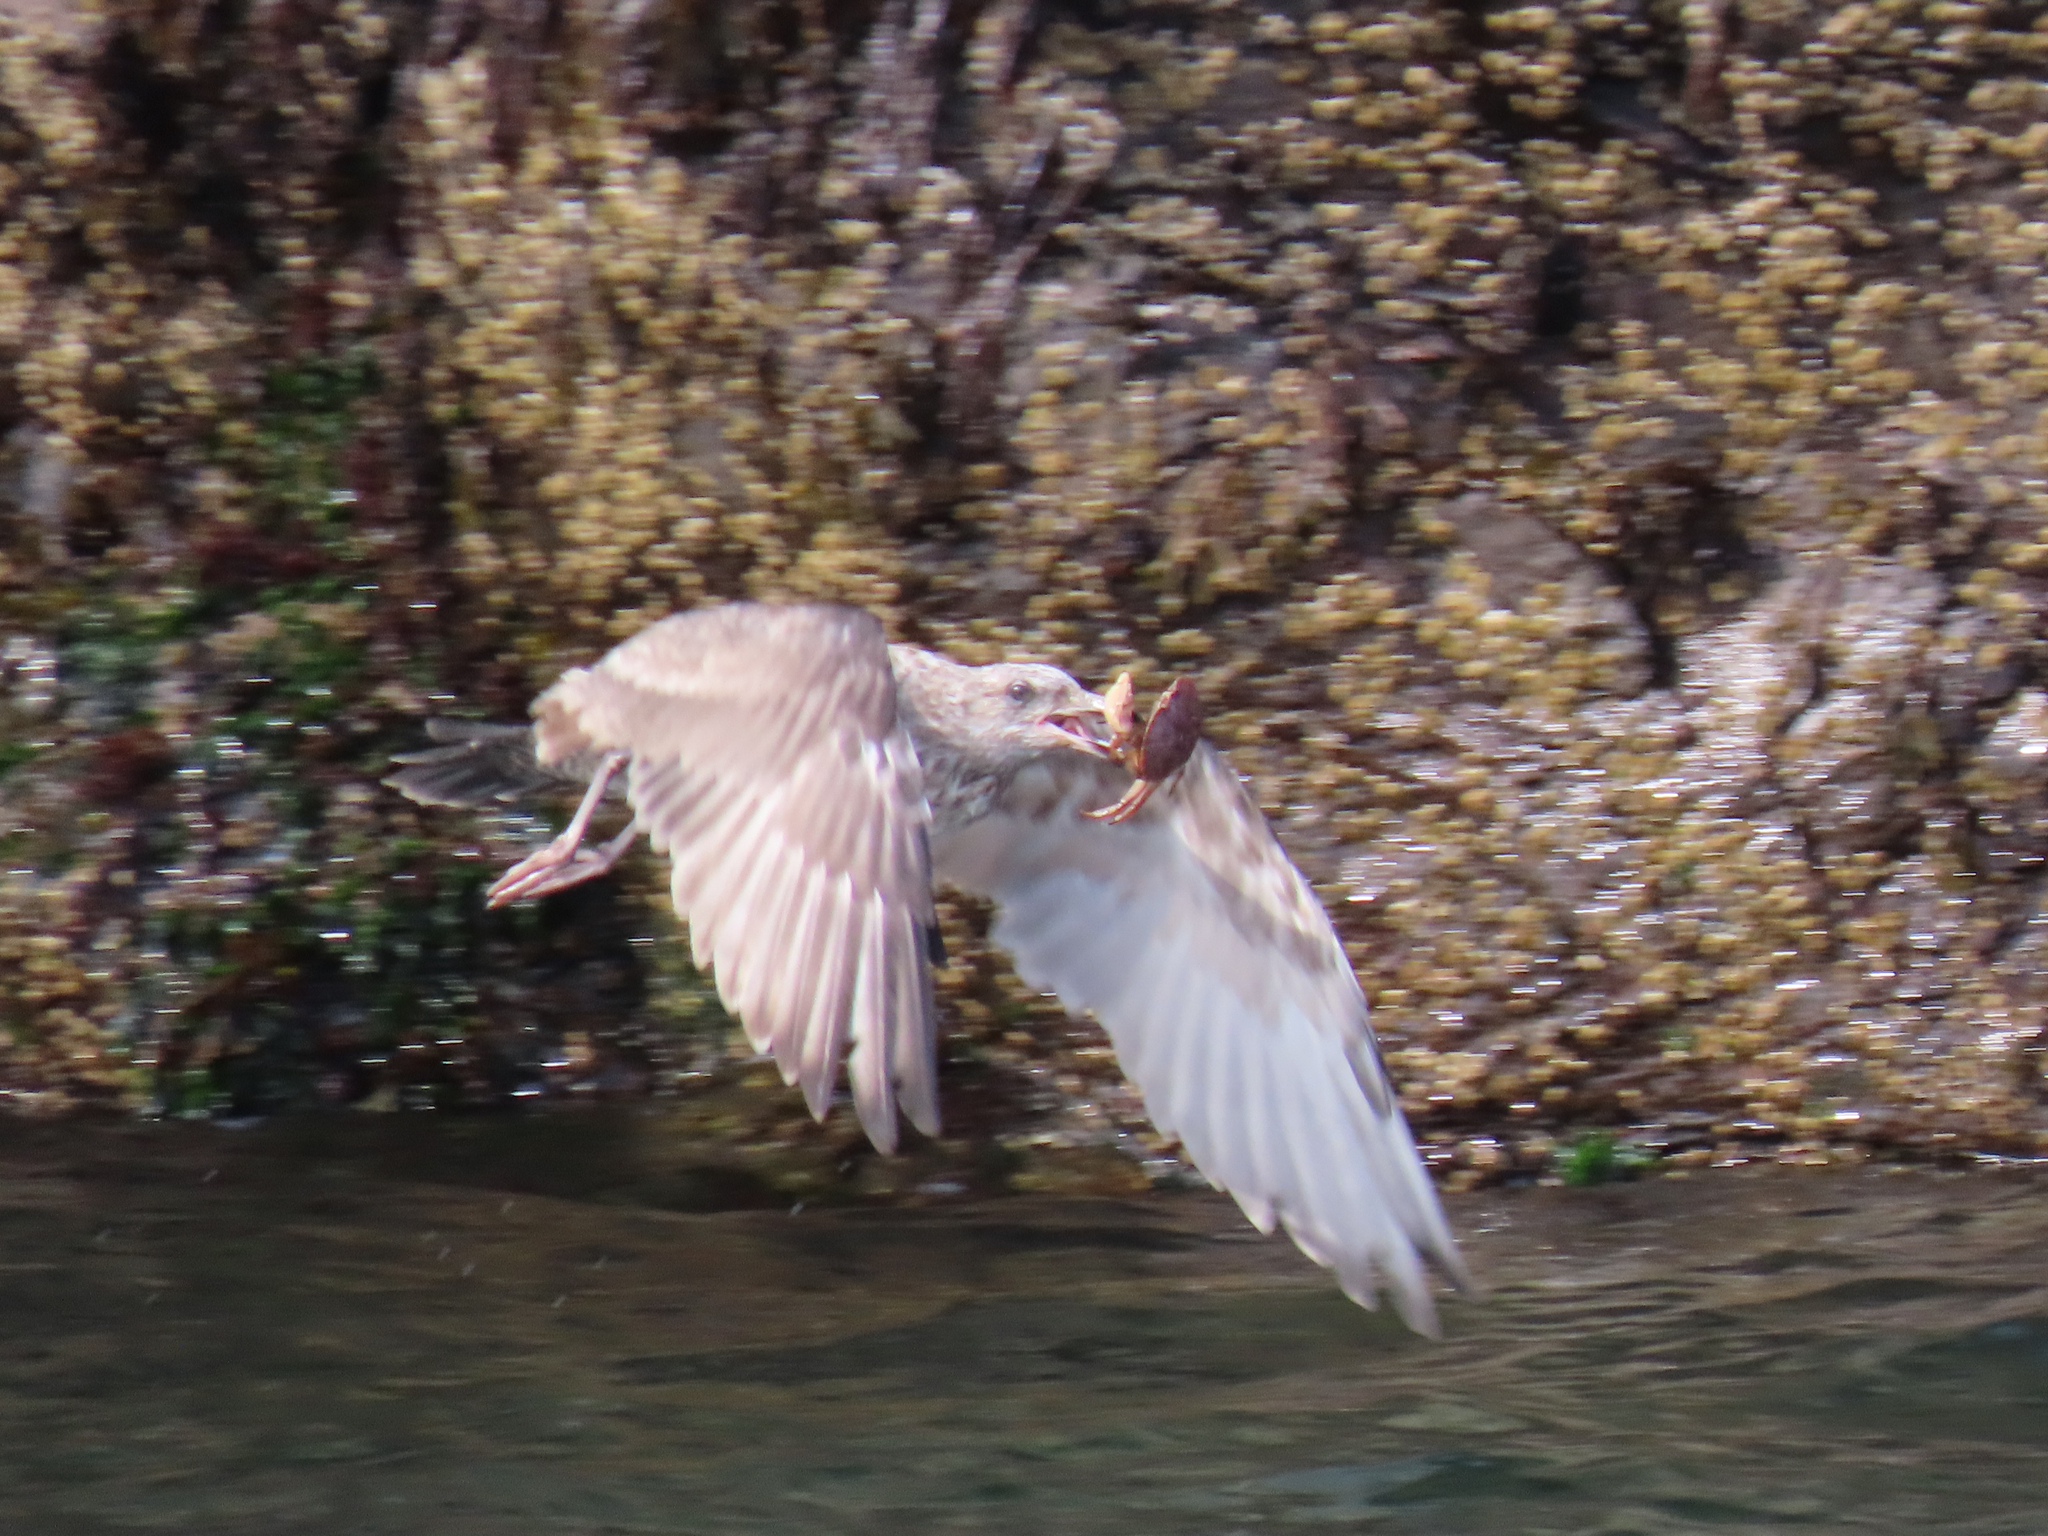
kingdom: Animalia
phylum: Chordata
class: Aves
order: Charadriiformes
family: Laridae
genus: Larus
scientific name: Larus argentatus
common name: Herring gull
